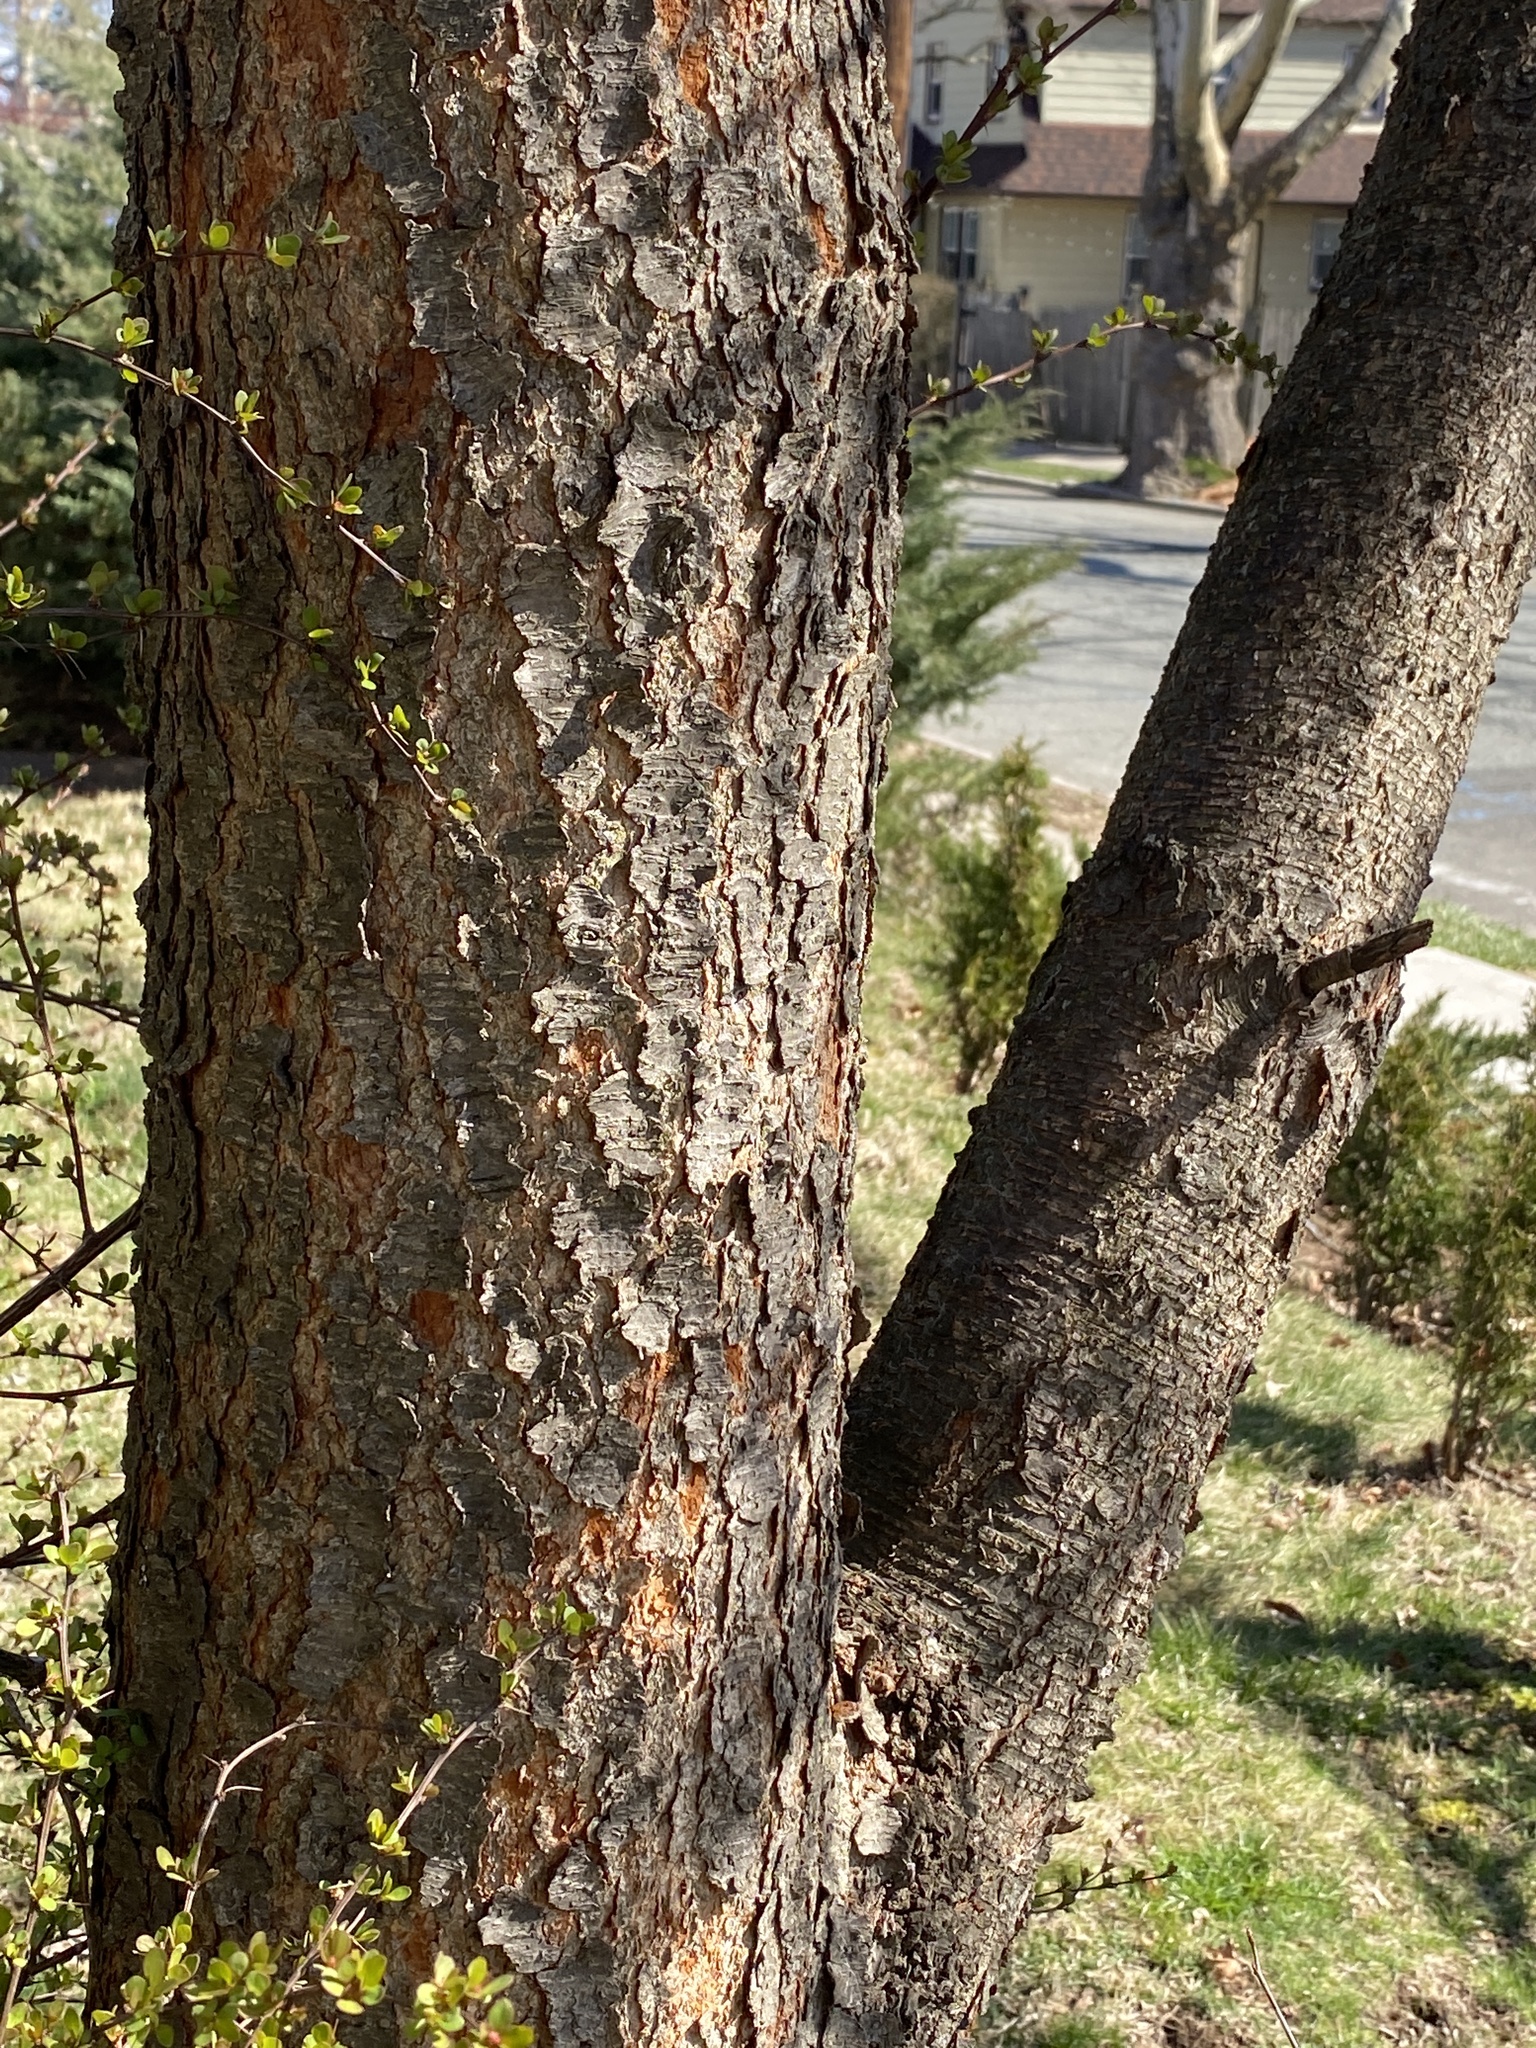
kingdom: Plantae
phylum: Tracheophyta
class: Magnoliopsida
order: Rosales
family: Rosaceae
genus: Prunus
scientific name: Prunus serotina
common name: Black cherry
